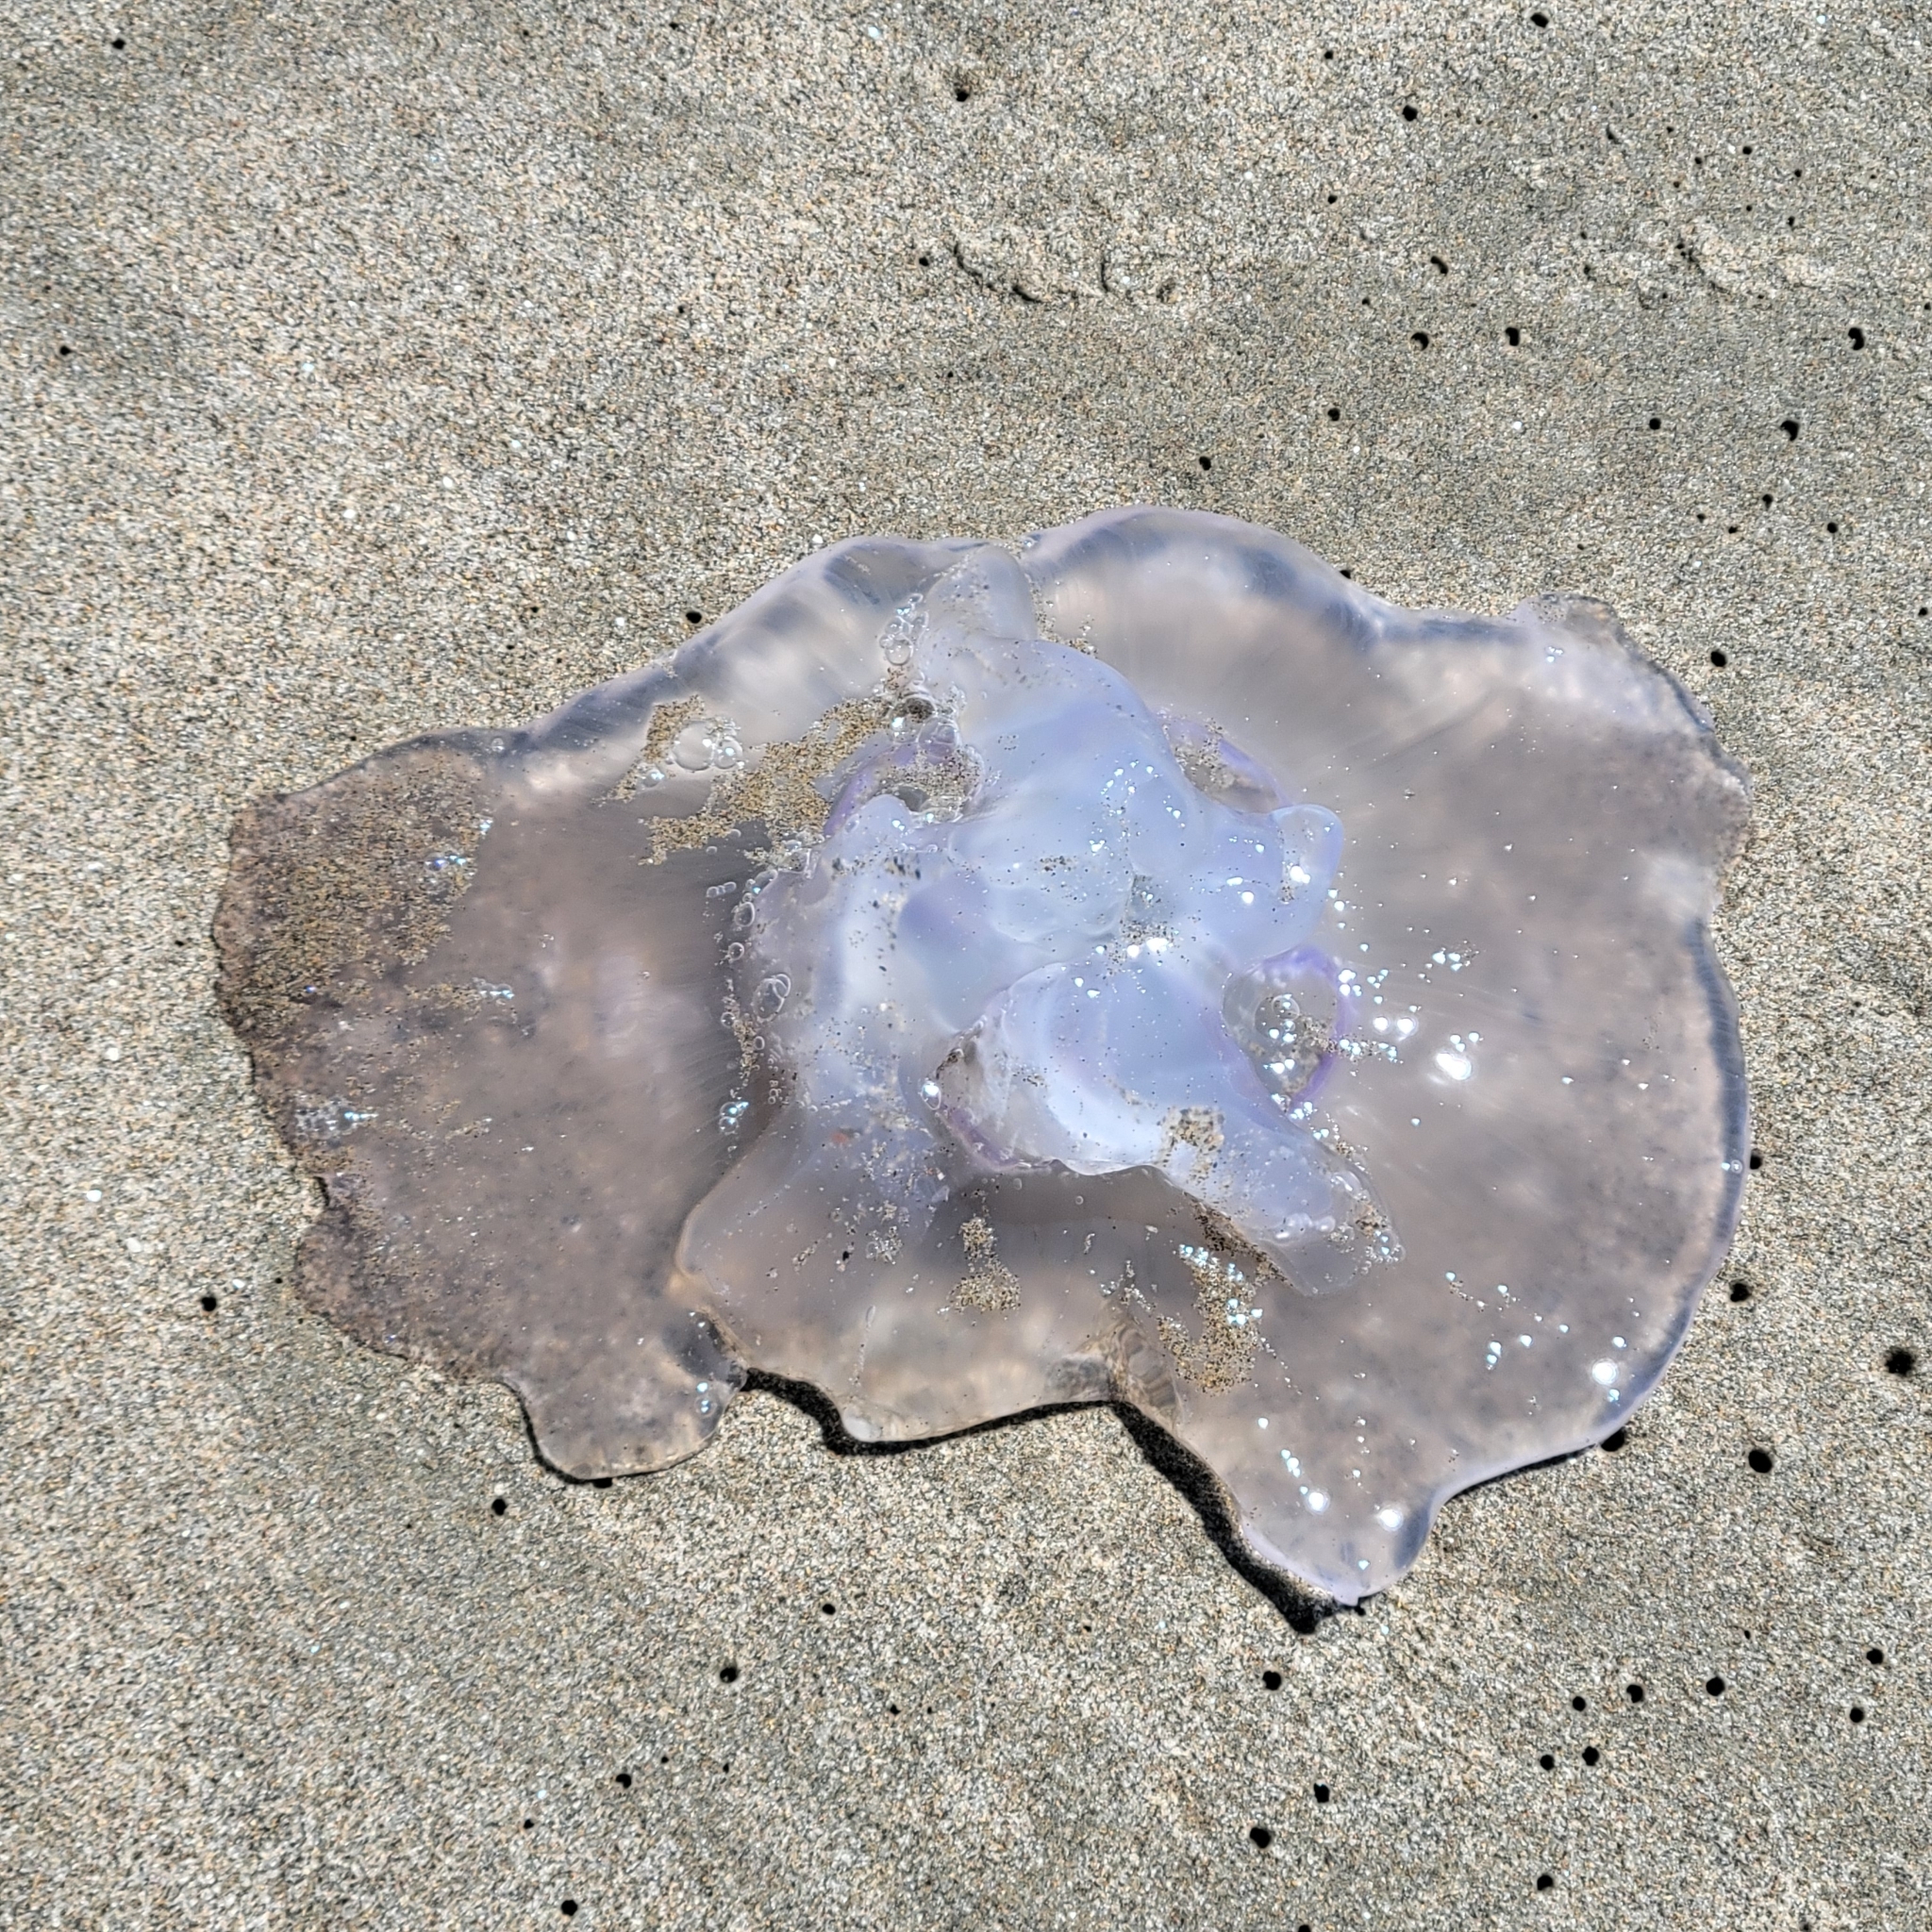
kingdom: Animalia
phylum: Cnidaria
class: Scyphozoa
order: Semaeostomeae
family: Ulmaridae
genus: Aurelia
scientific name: Aurelia labiata
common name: Pacific moon jelly
